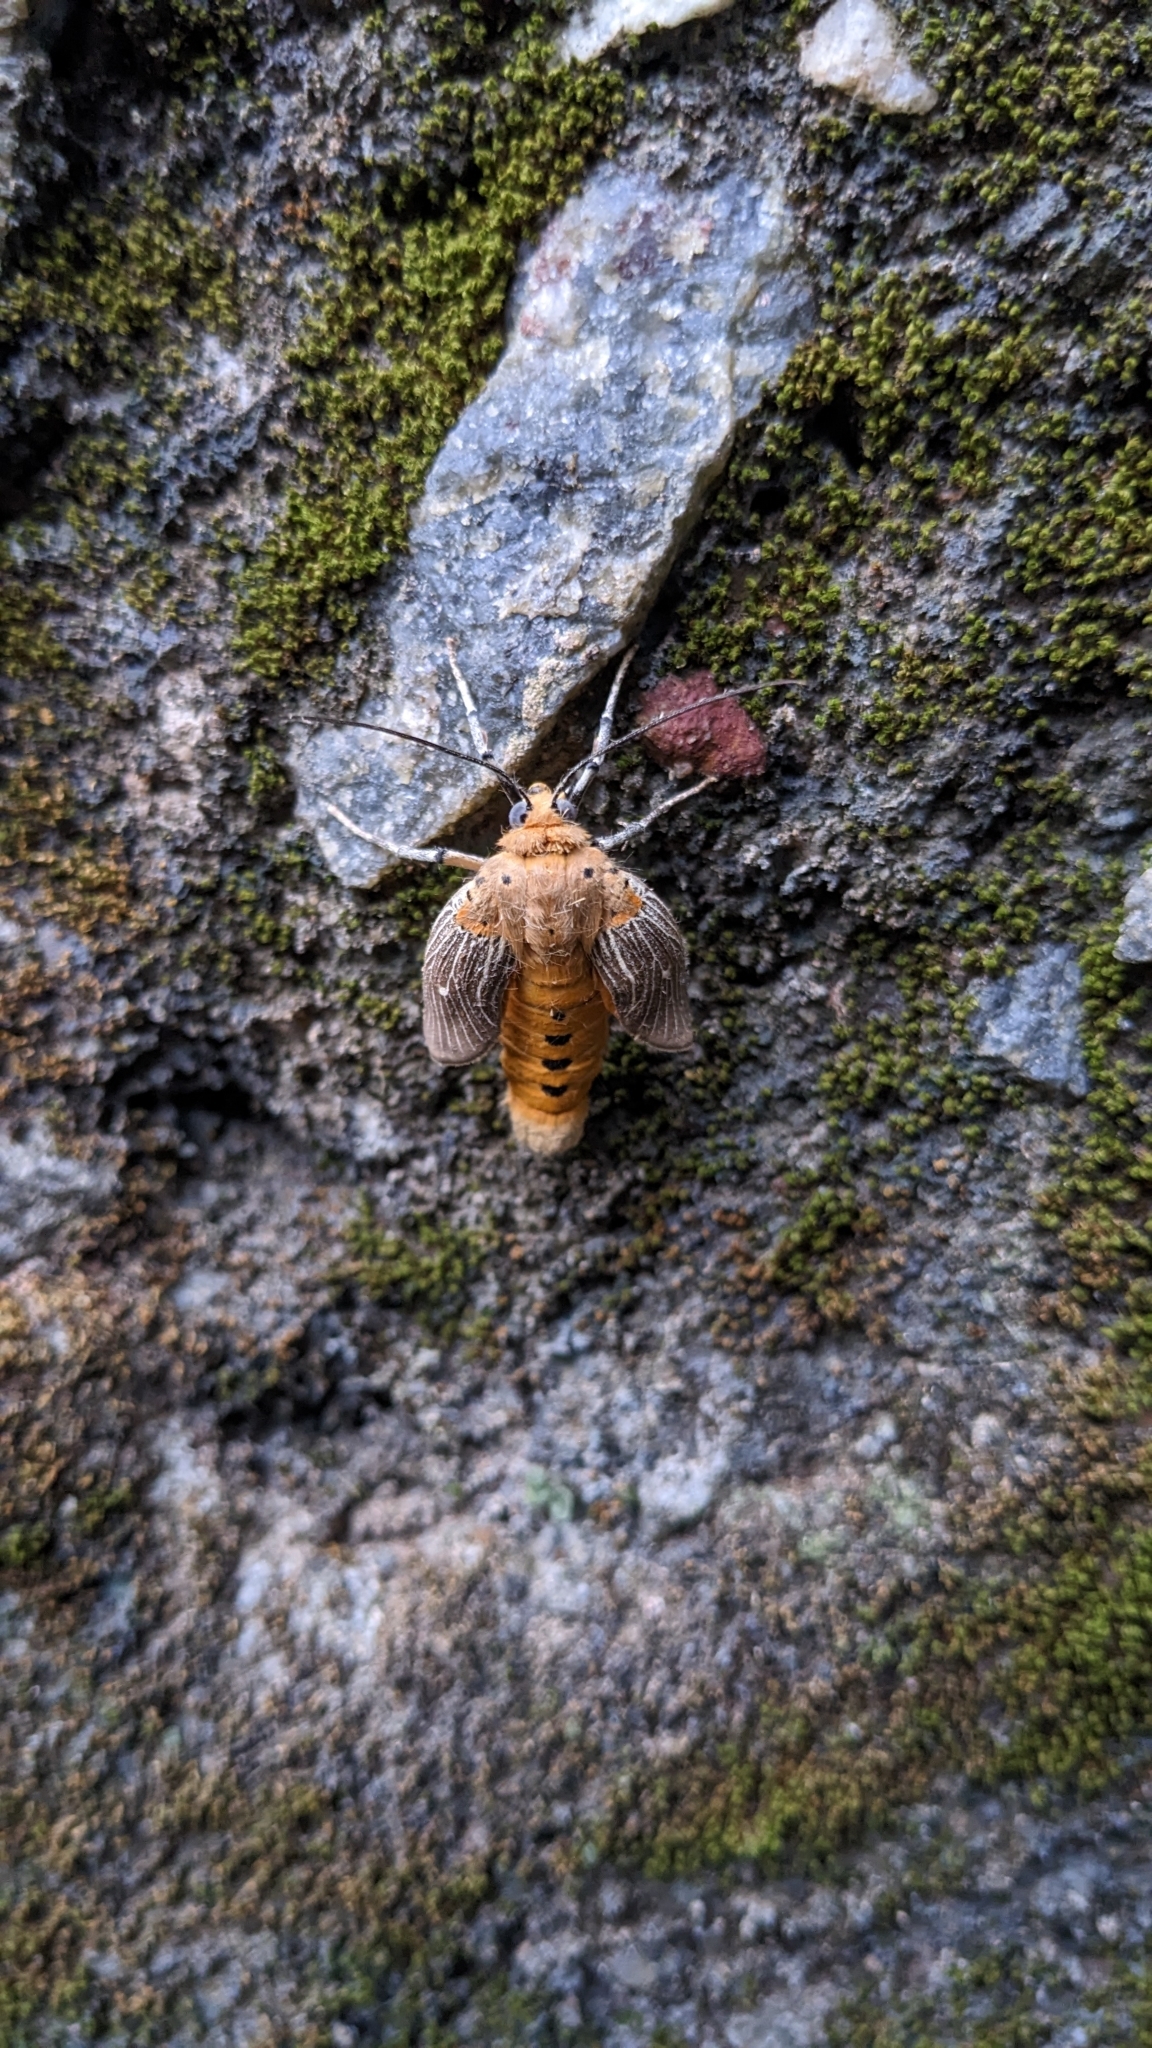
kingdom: Animalia
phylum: Arthropoda
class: Insecta
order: Lepidoptera
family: Erebidae
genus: Asota
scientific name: Asota caricae
